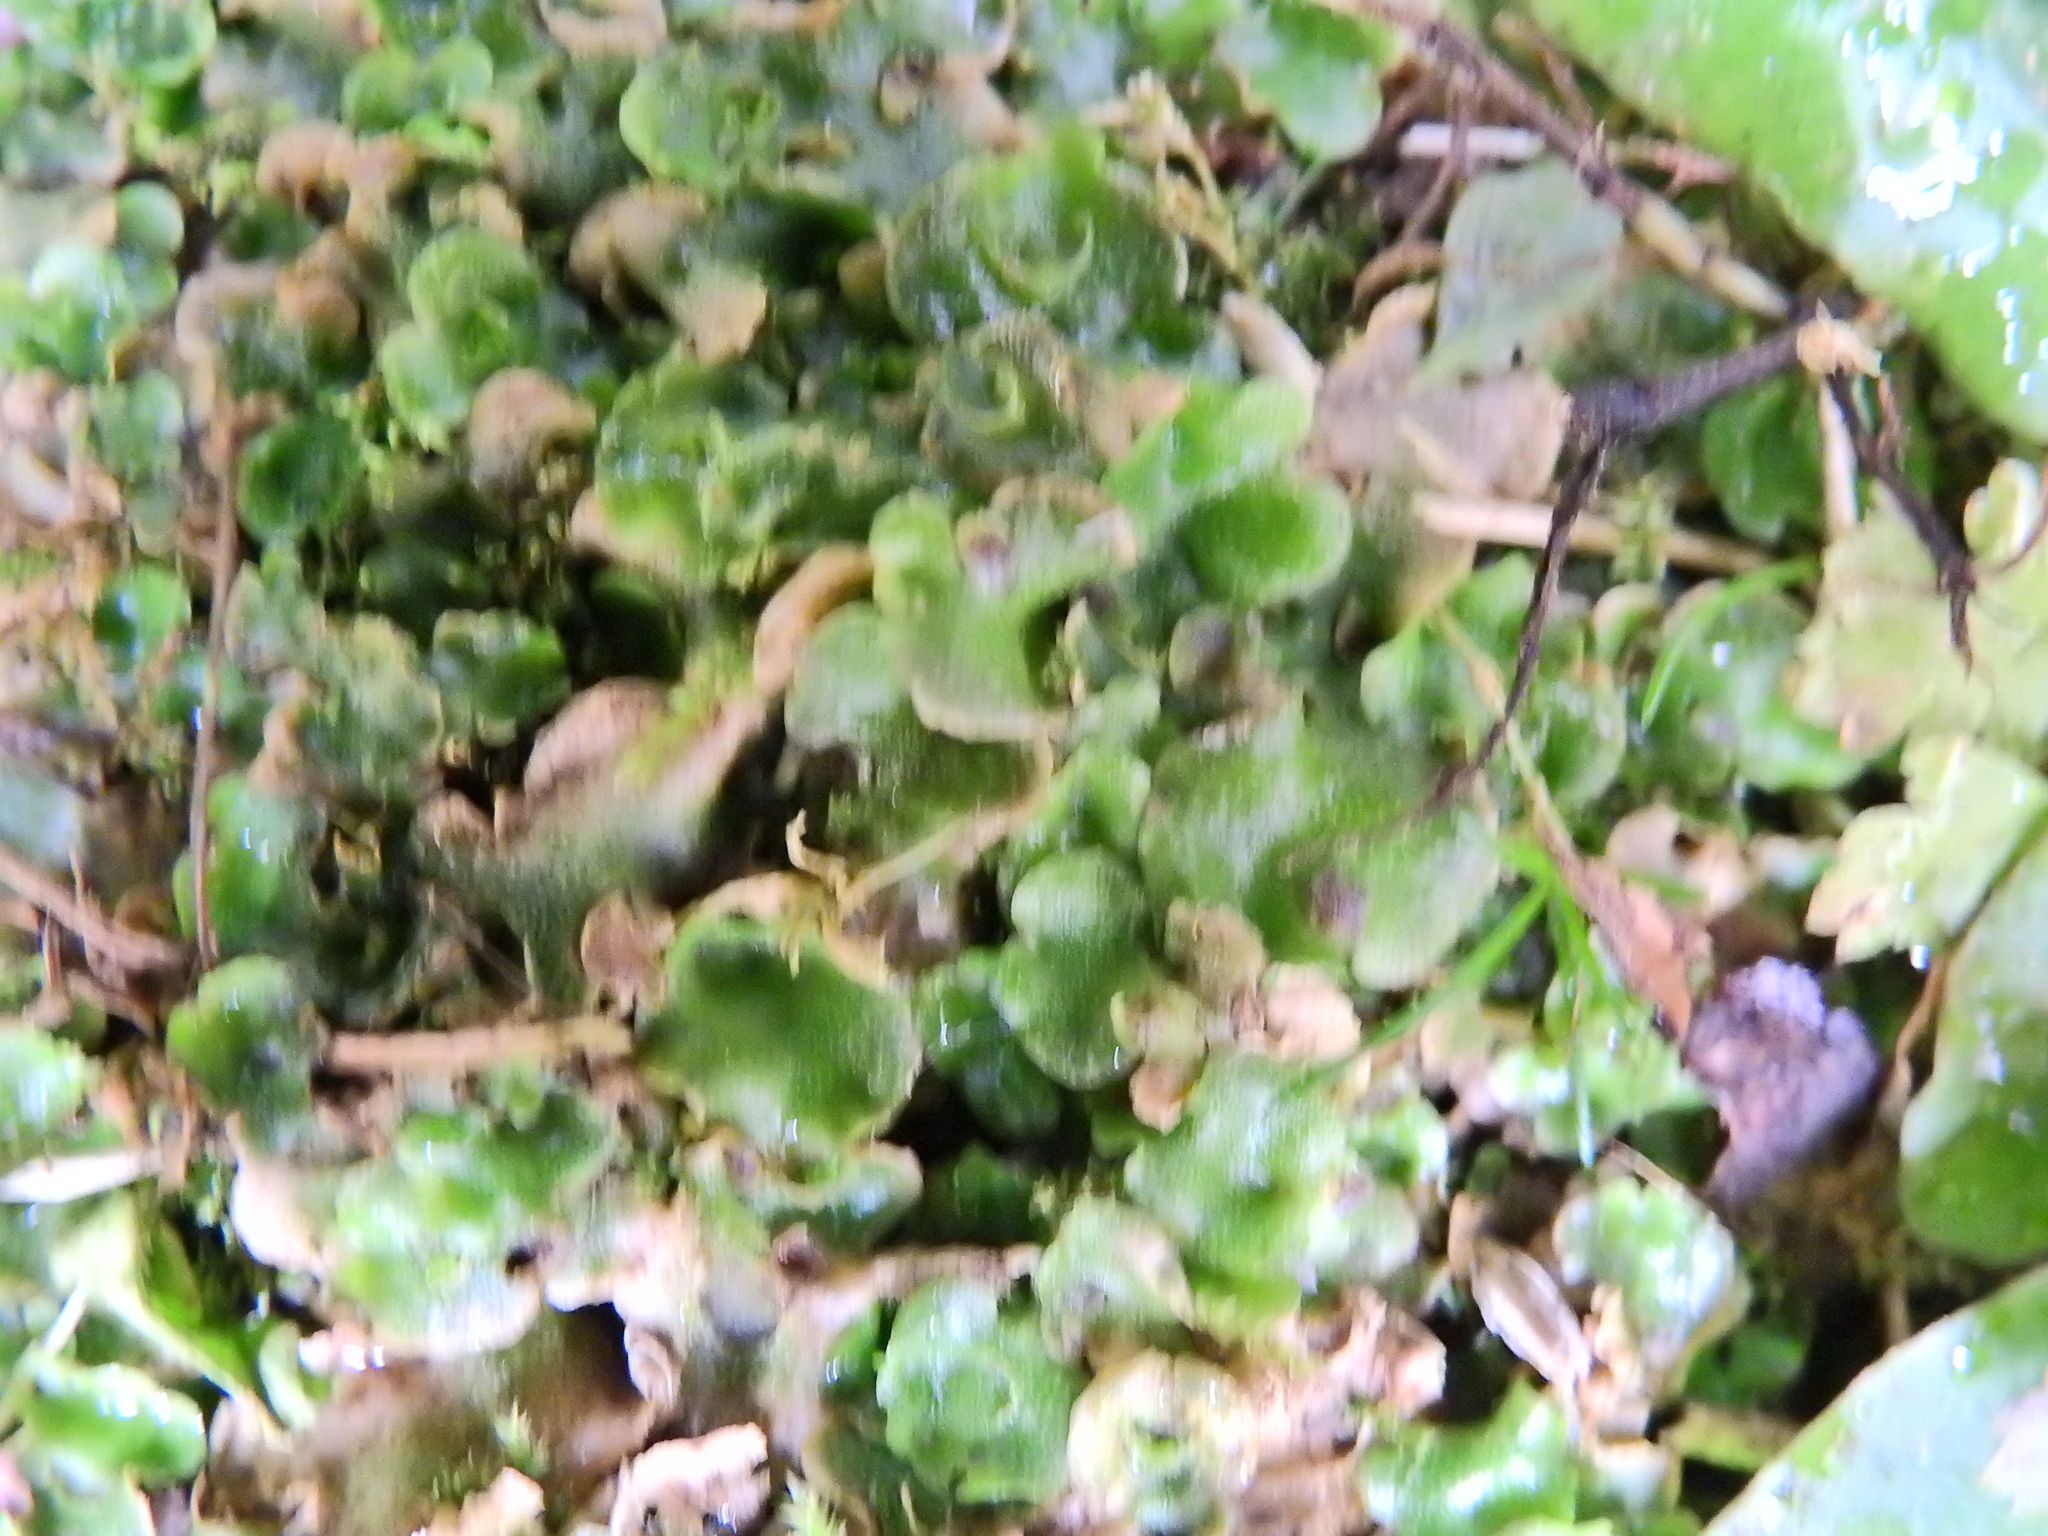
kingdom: Plantae
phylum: Marchantiophyta
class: Marchantiopsida
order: Lunulariales
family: Lunulariaceae
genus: Lunularia
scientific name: Lunularia cruciata
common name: Crescent-cup liverwort
